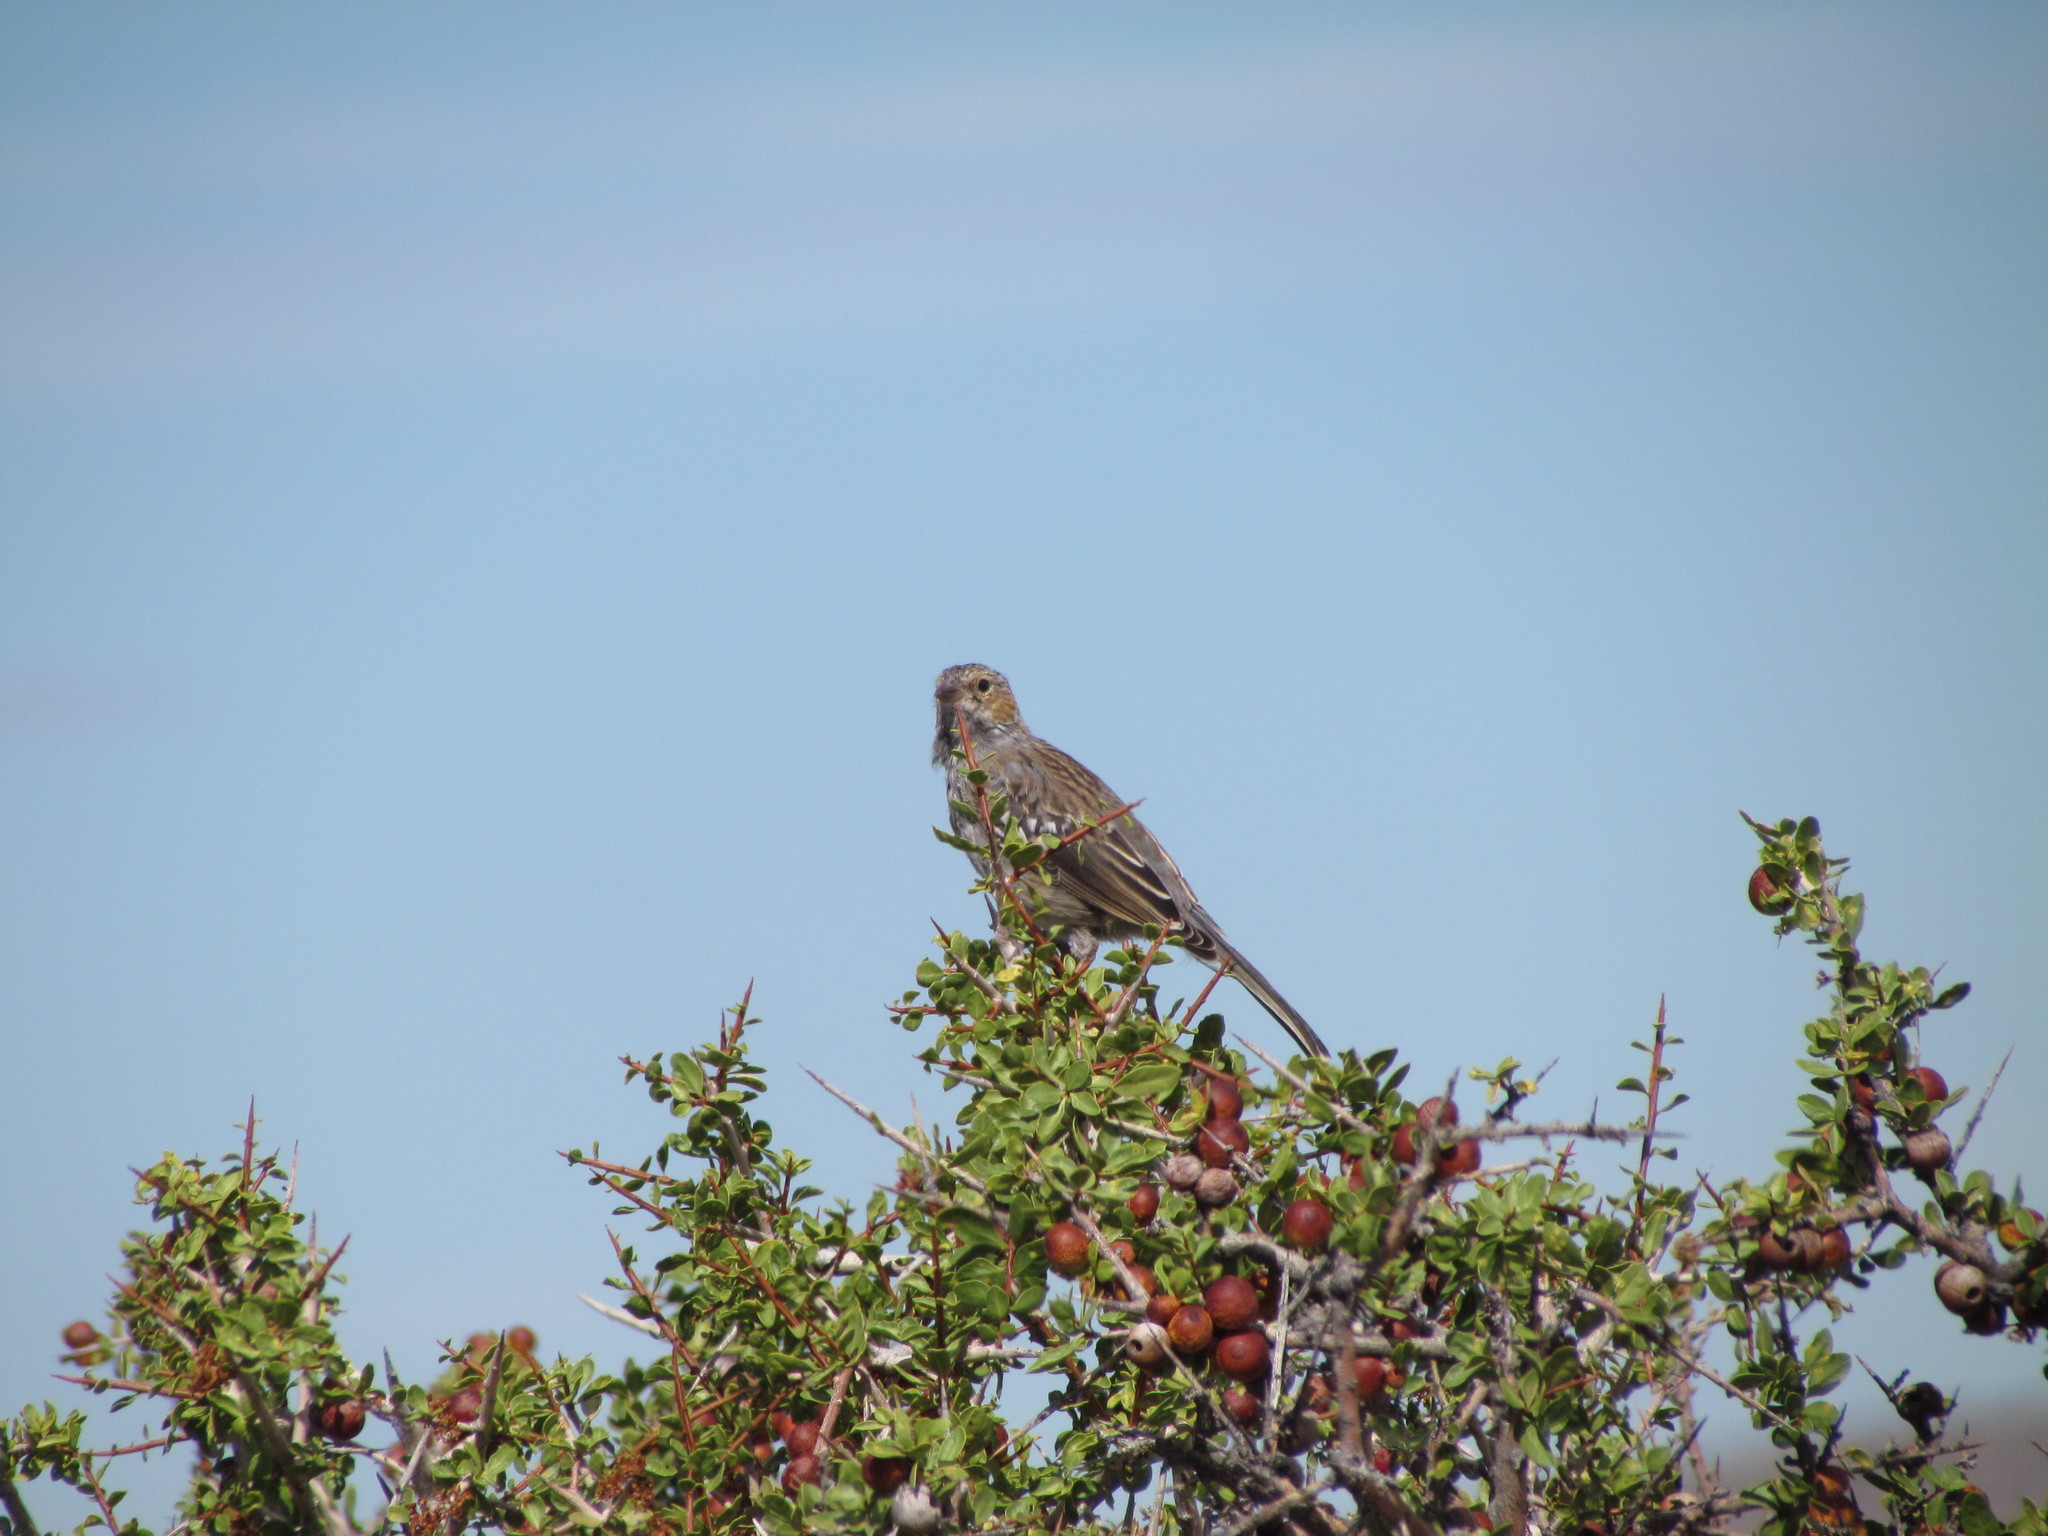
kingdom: Animalia
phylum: Chordata
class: Aves
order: Passeriformes
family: Thraupidae
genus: Rhopospina
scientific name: Rhopospina fruticeti
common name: Mourning sierra finch
